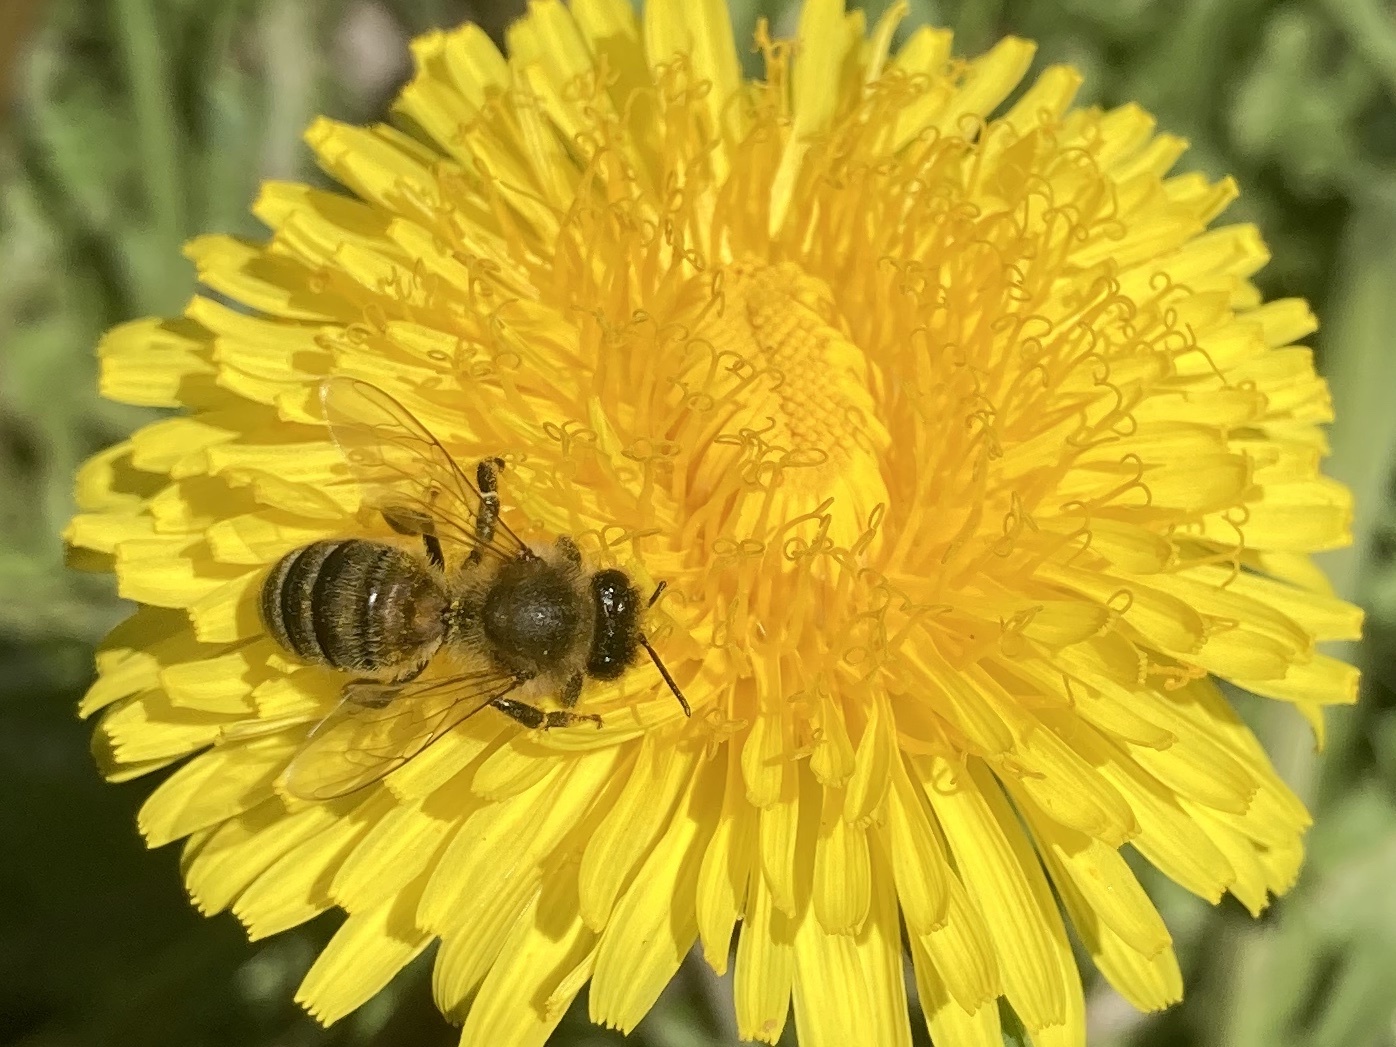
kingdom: Animalia
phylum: Arthropoda
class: Insecta
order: Hymenoptera
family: Apidae
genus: Apis
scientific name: Apis mellifera
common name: Honey bee
